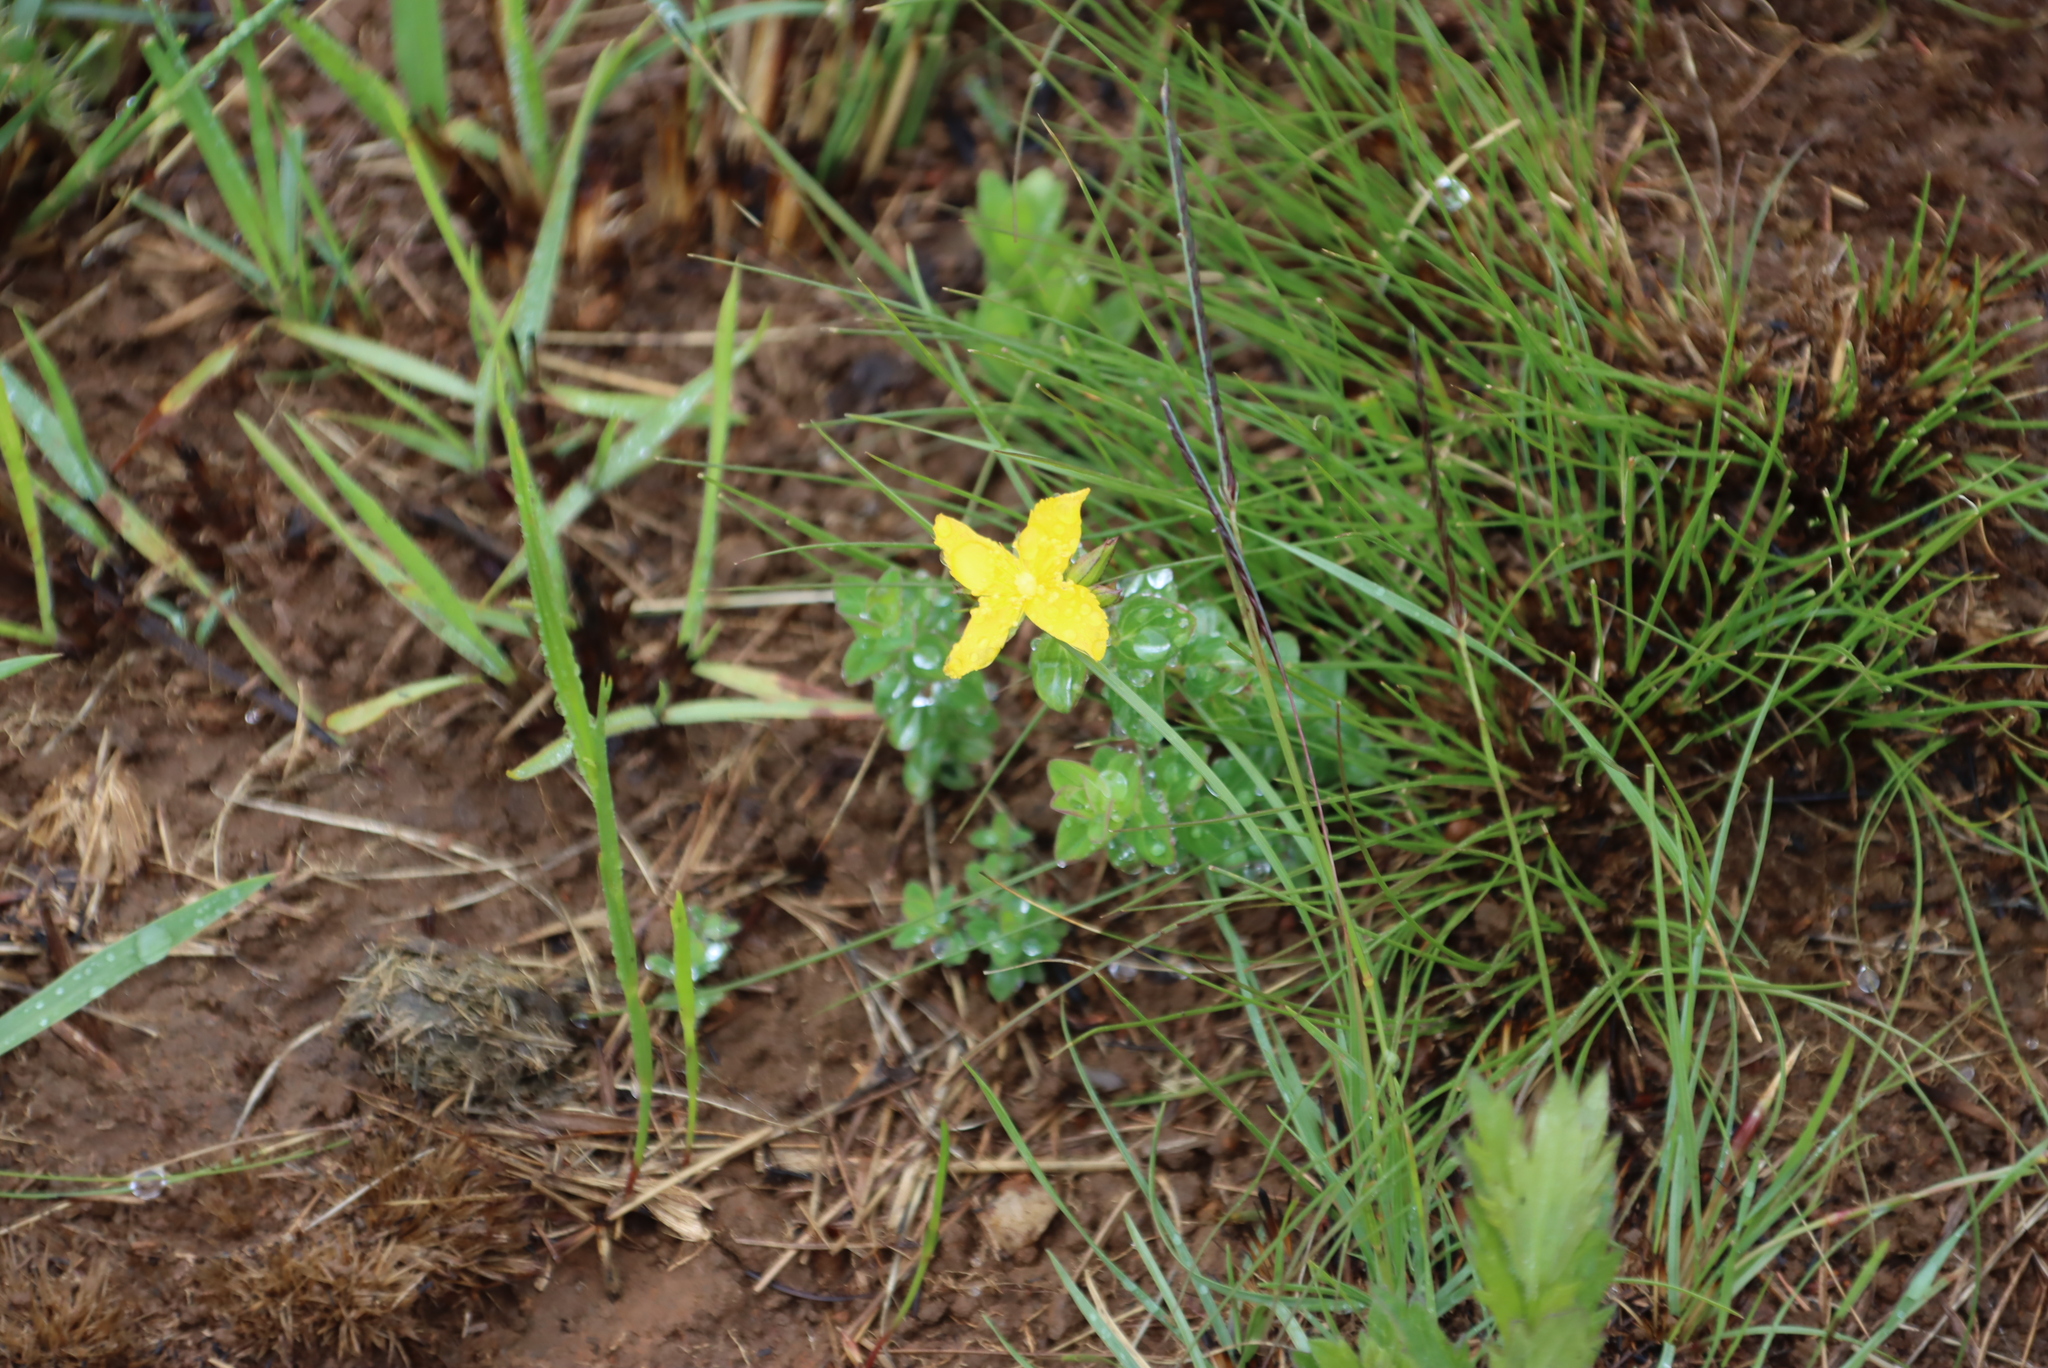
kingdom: Plantae
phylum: Tracheophyta
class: Magnoliopsida
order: Malpighiales
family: Hypericaceae
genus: Hypericum
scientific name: Hypericum aethiopicum
